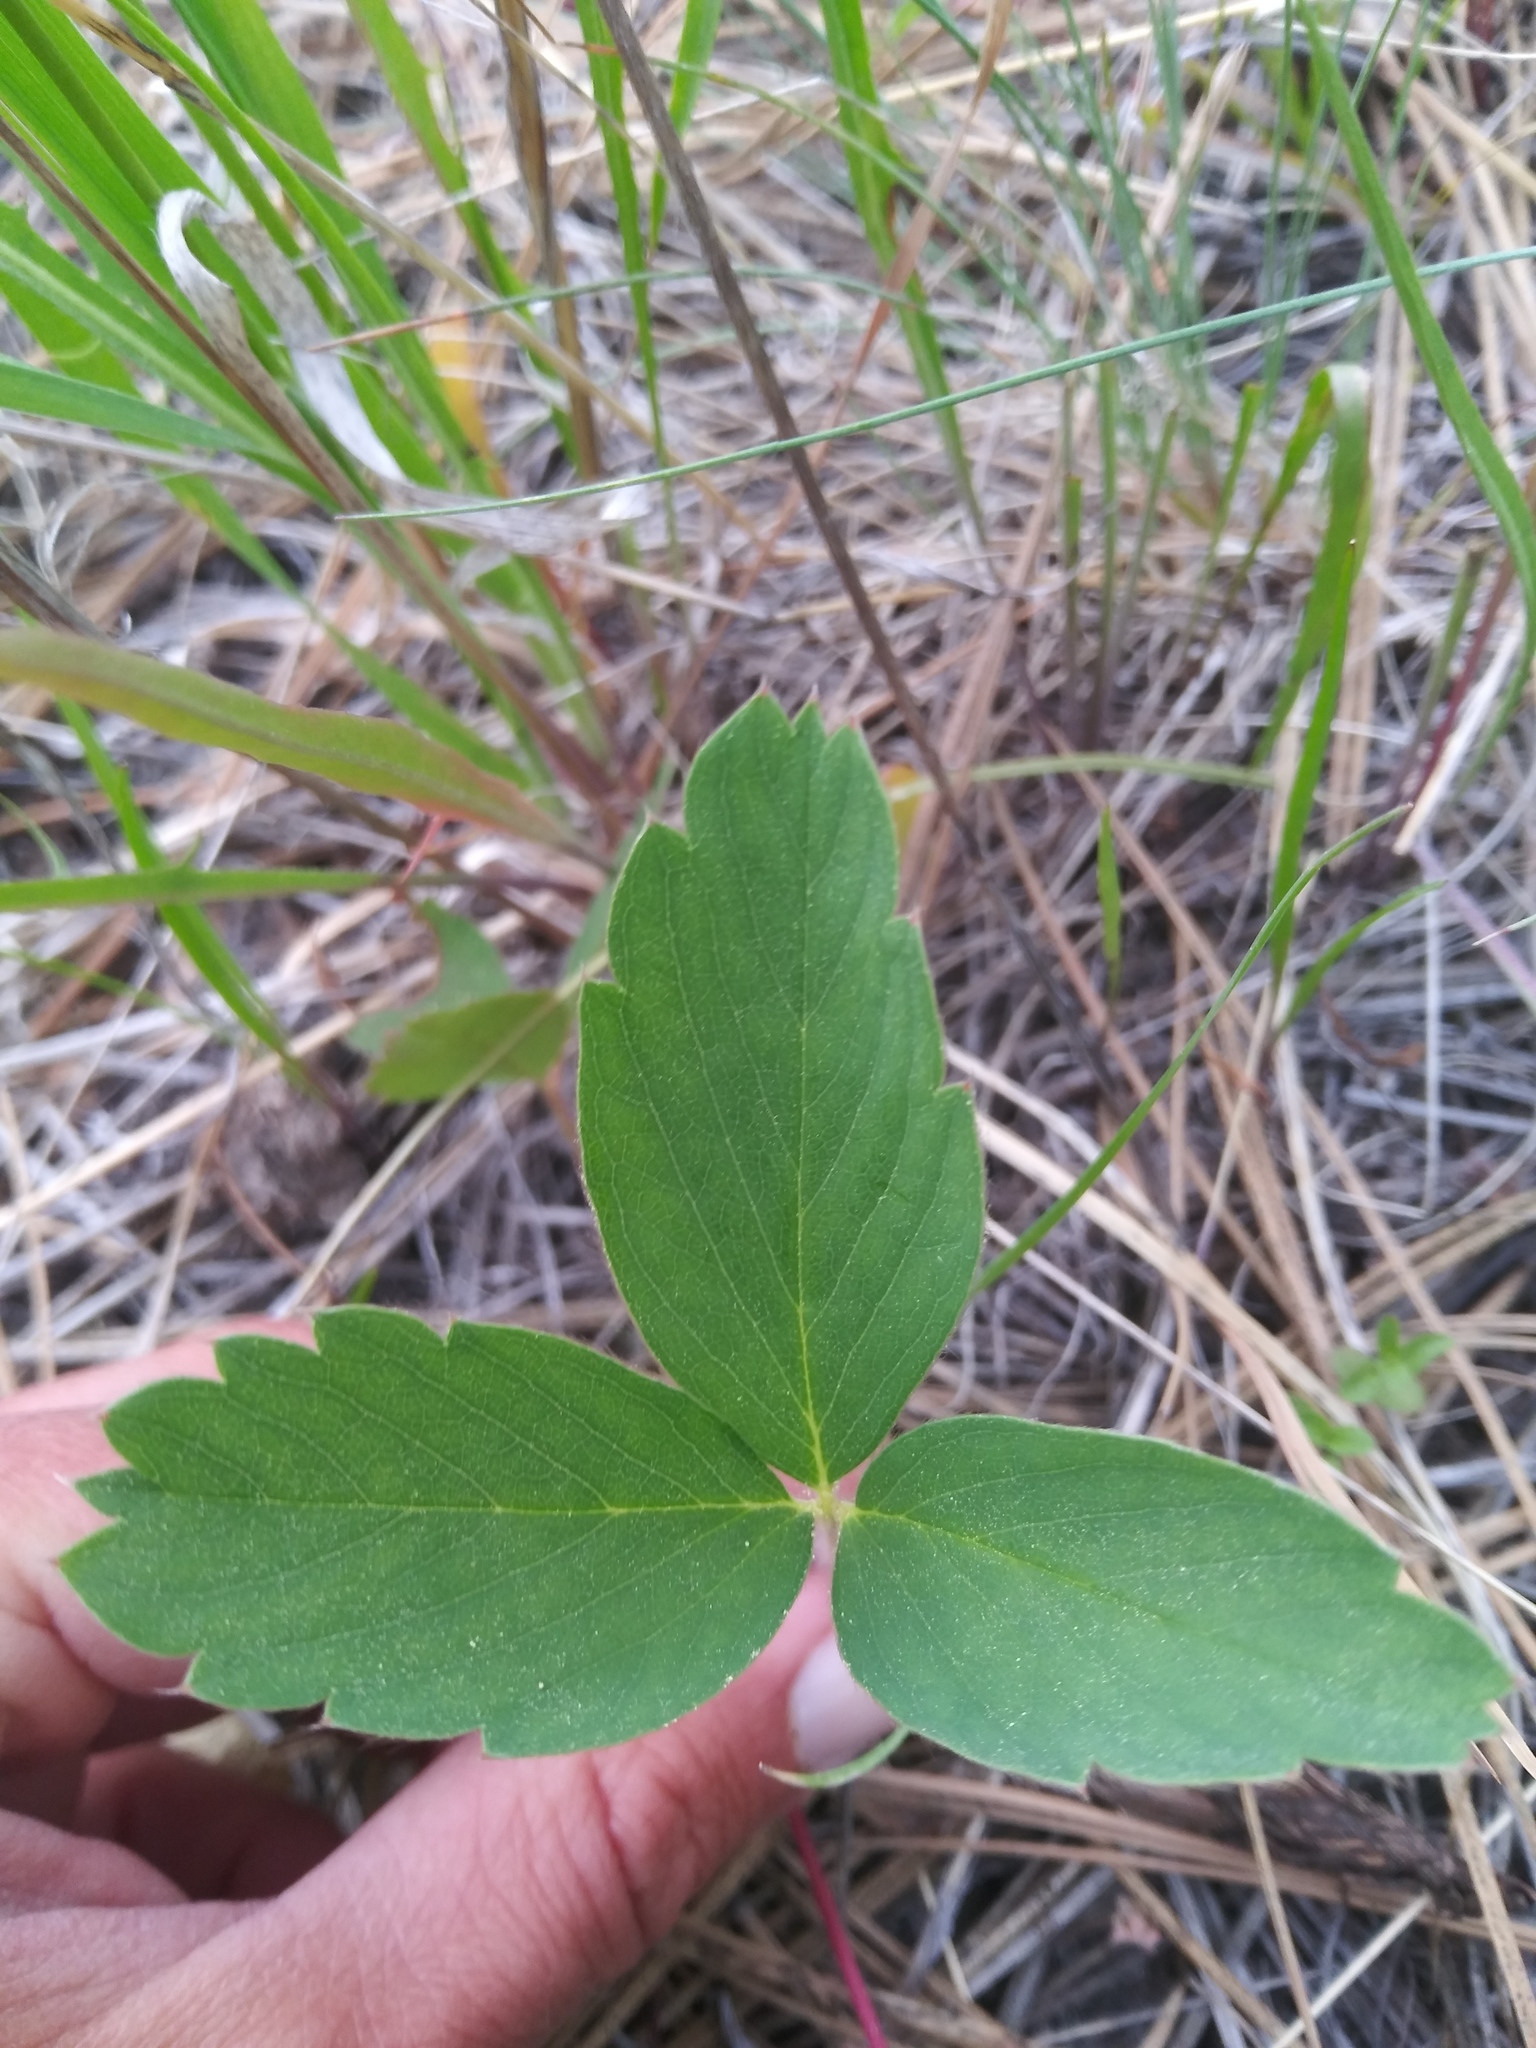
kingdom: Plantae
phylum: Tracheophyta
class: Magnoliopsida
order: Rosales
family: Rosaceae
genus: Fragaria
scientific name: Fragaria virginiana
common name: Thickleaved wild strawberry
